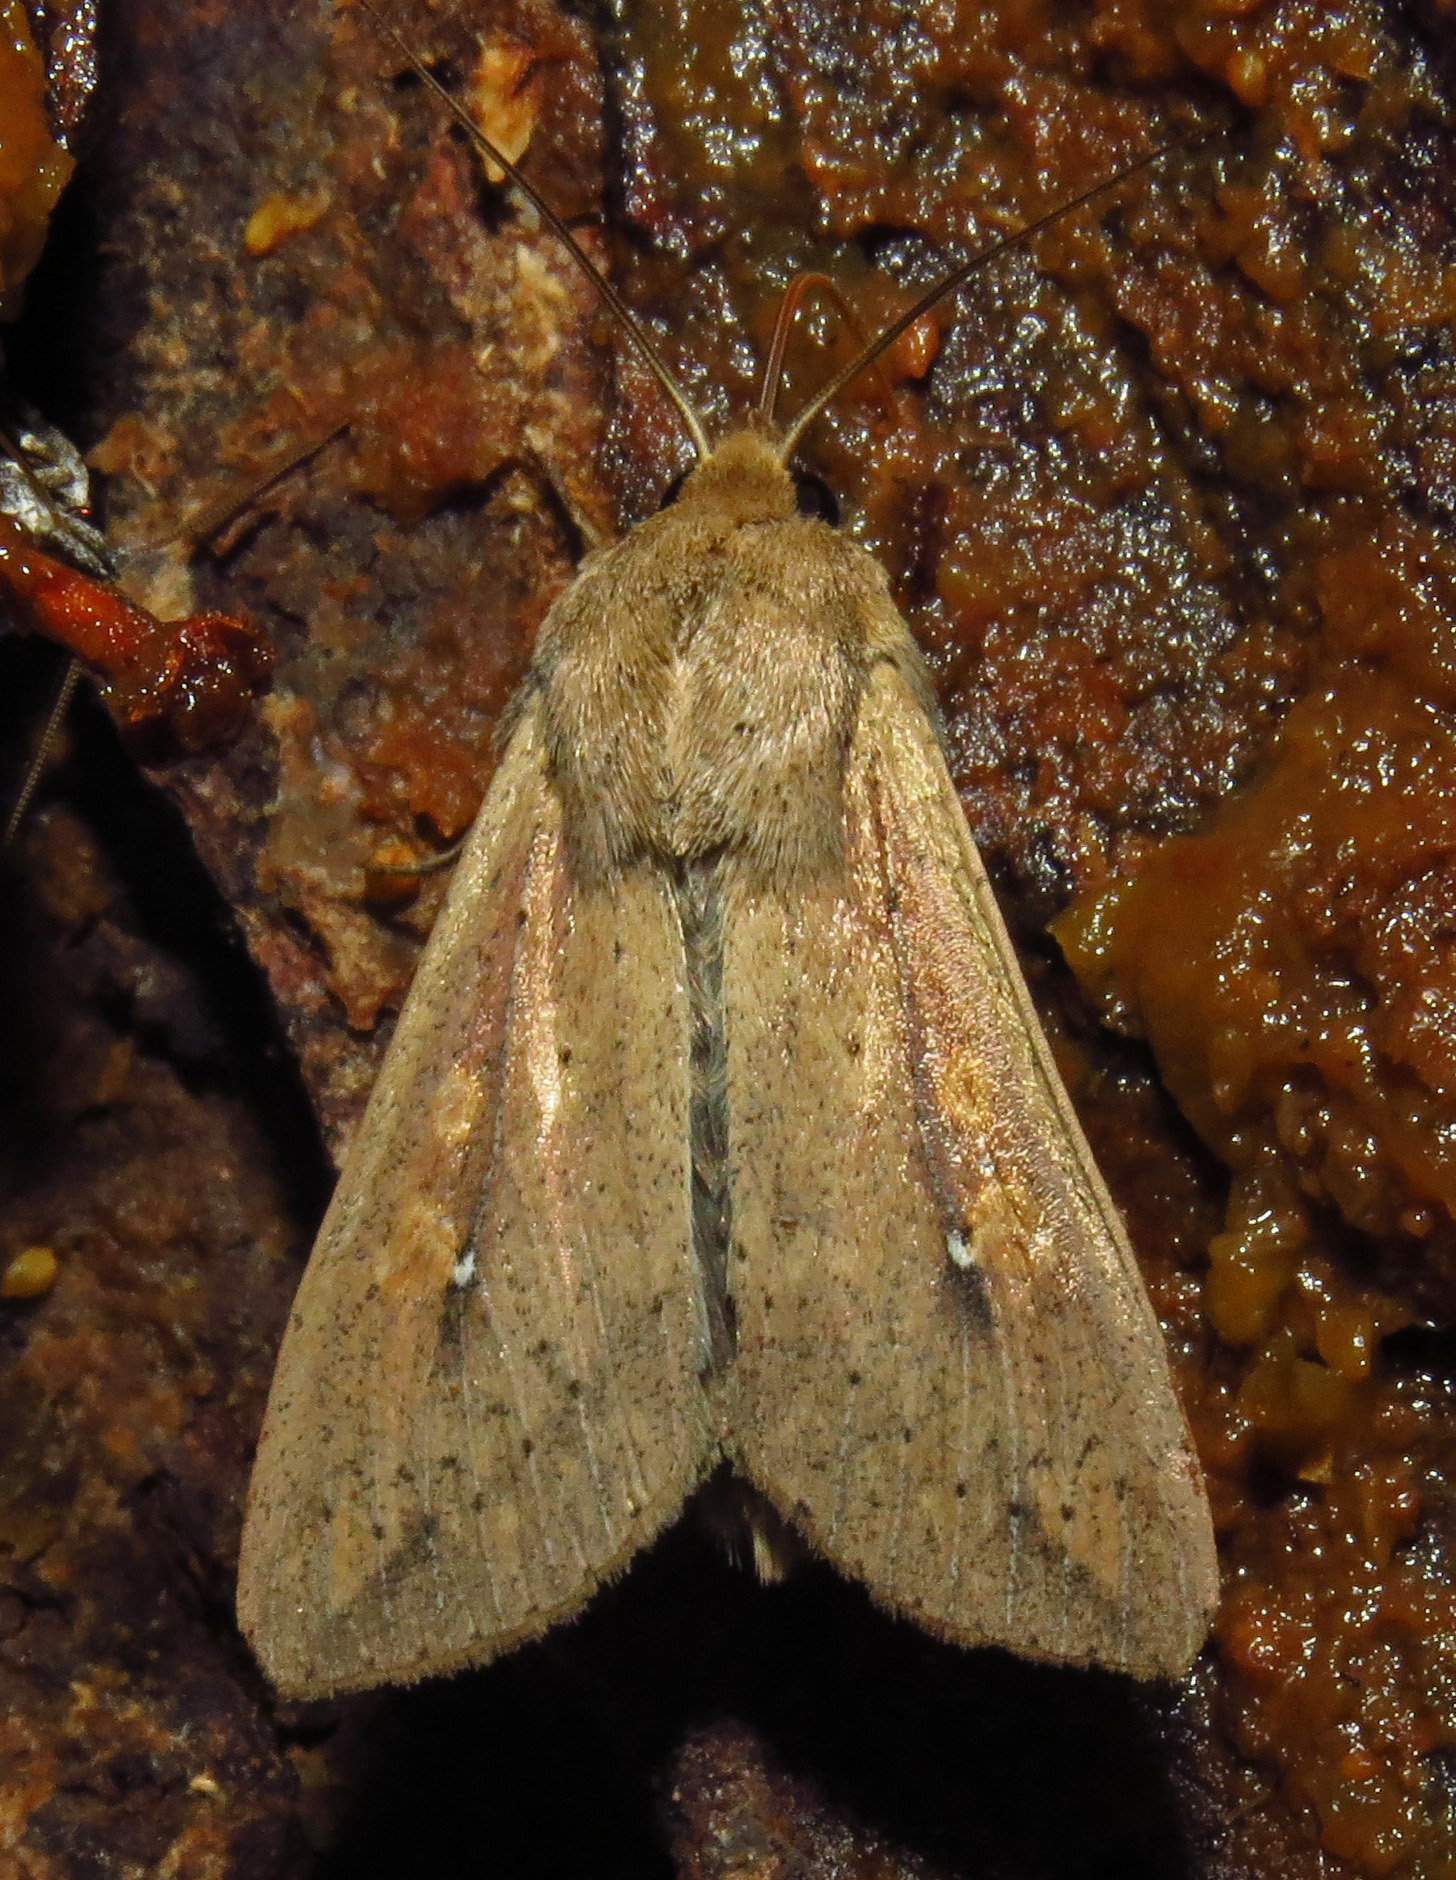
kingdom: Animalia
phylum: Arthropoda
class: Insecta
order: Lepidoptera
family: Noctuidae
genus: Mythimna
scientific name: Mythimna unipuncta
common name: White-speck
